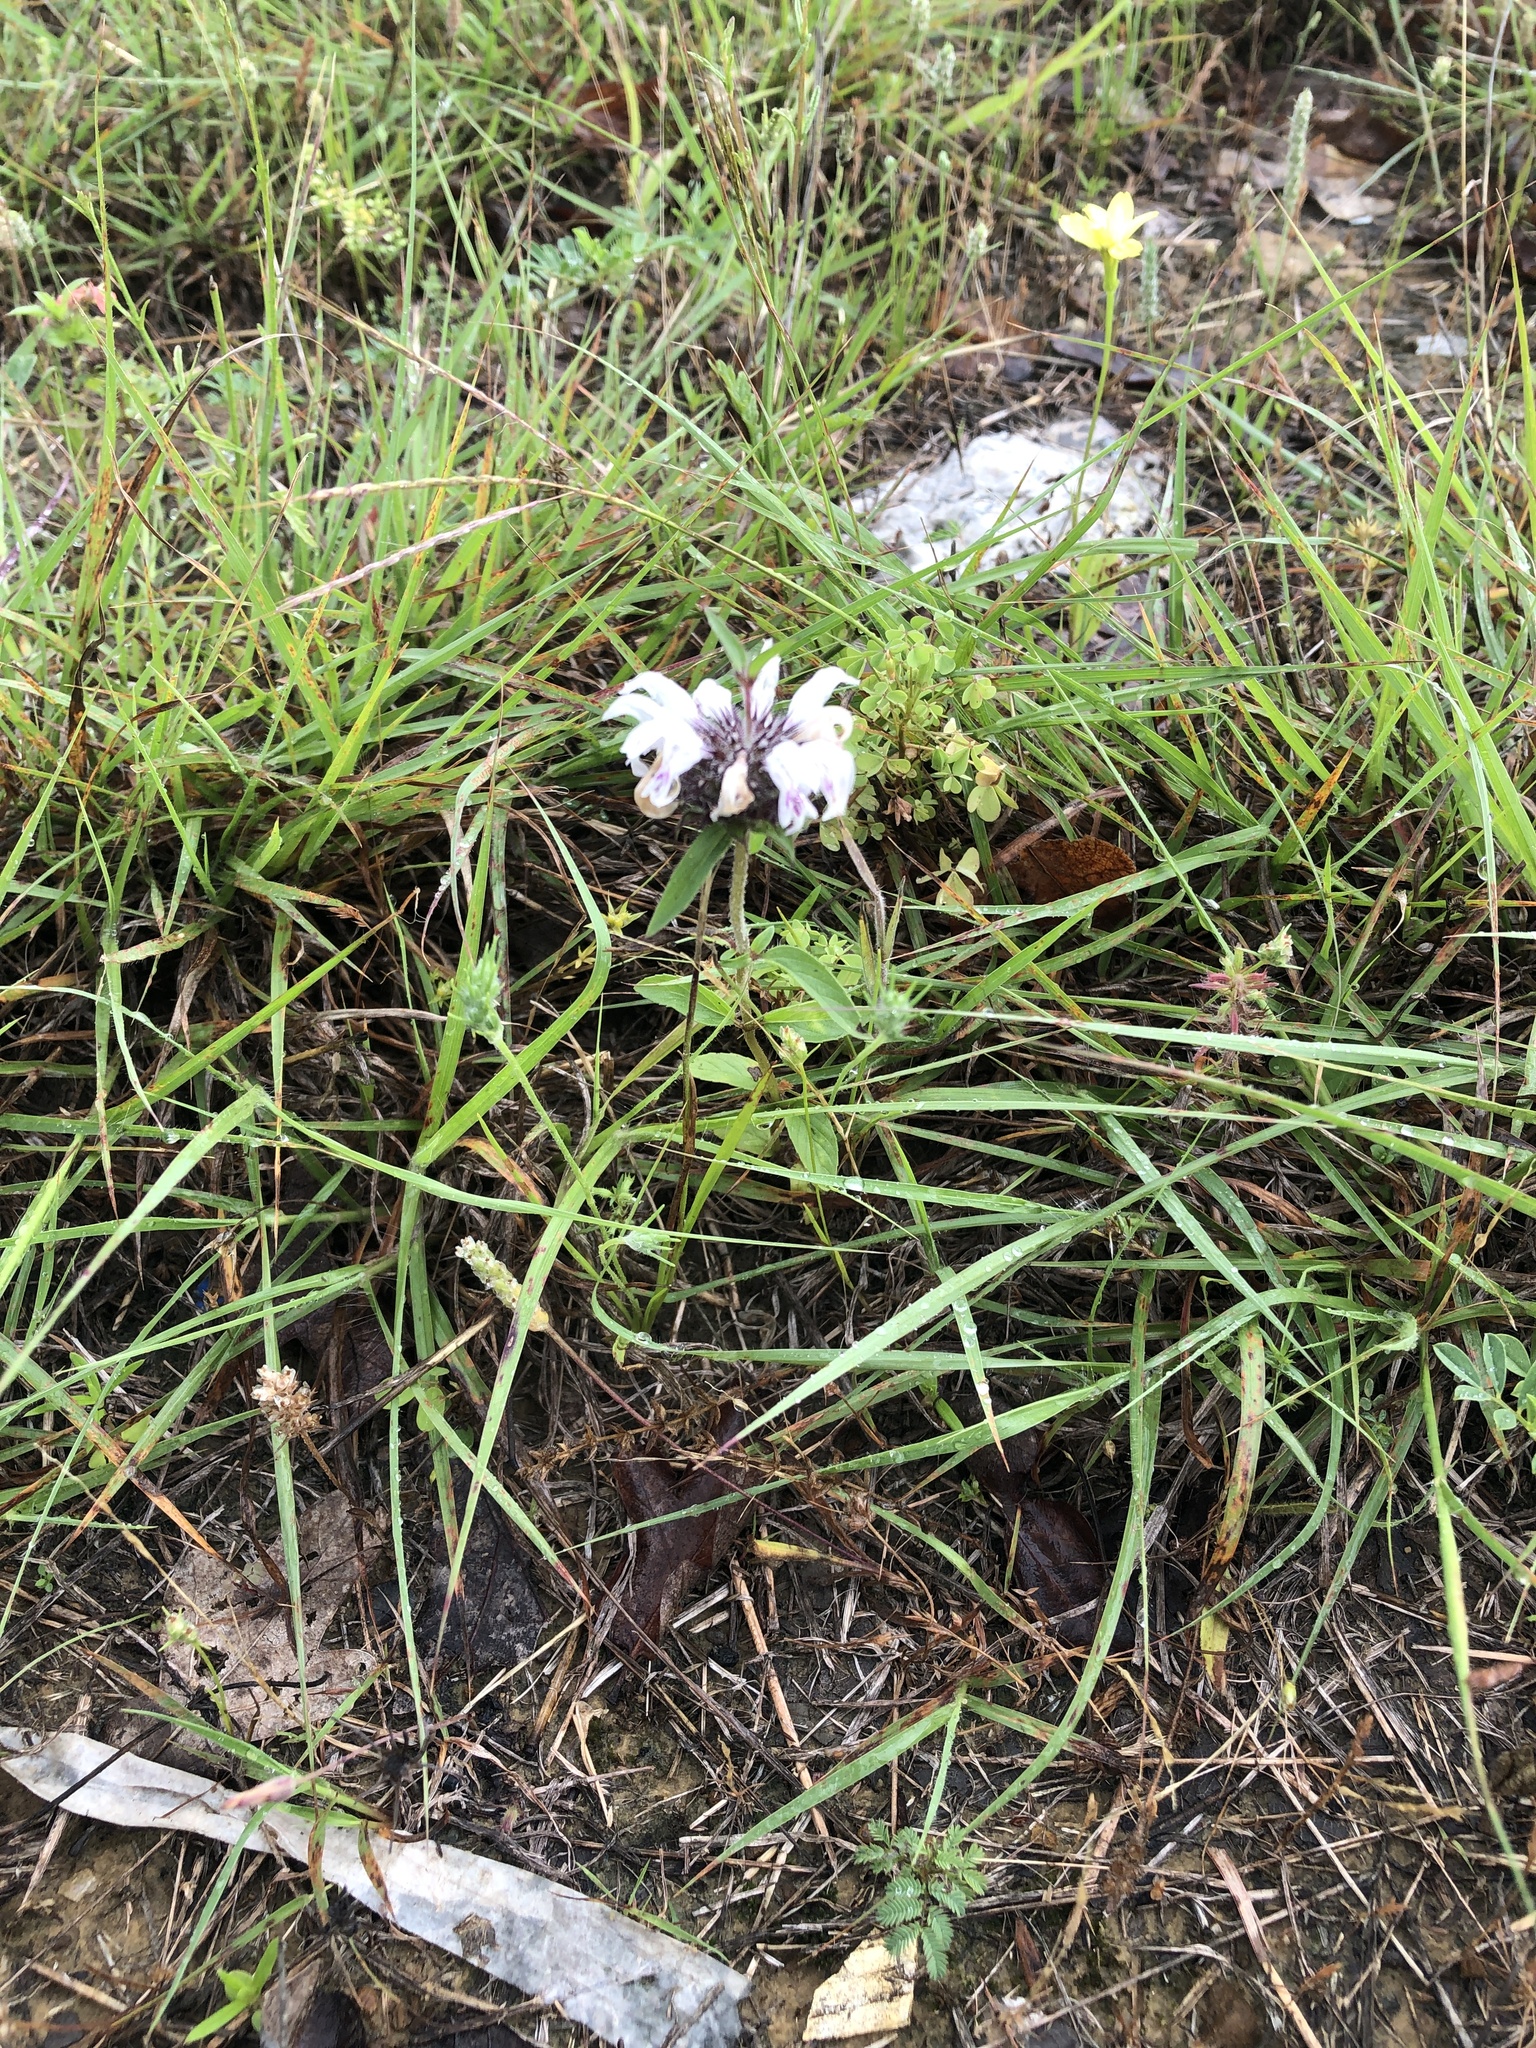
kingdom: Plantae
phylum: Tracheophyta
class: Magnoliopsida
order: Lamiales
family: Lamiaceae
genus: Monarda
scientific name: Monarda clinopodioides
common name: Basil beebalm
